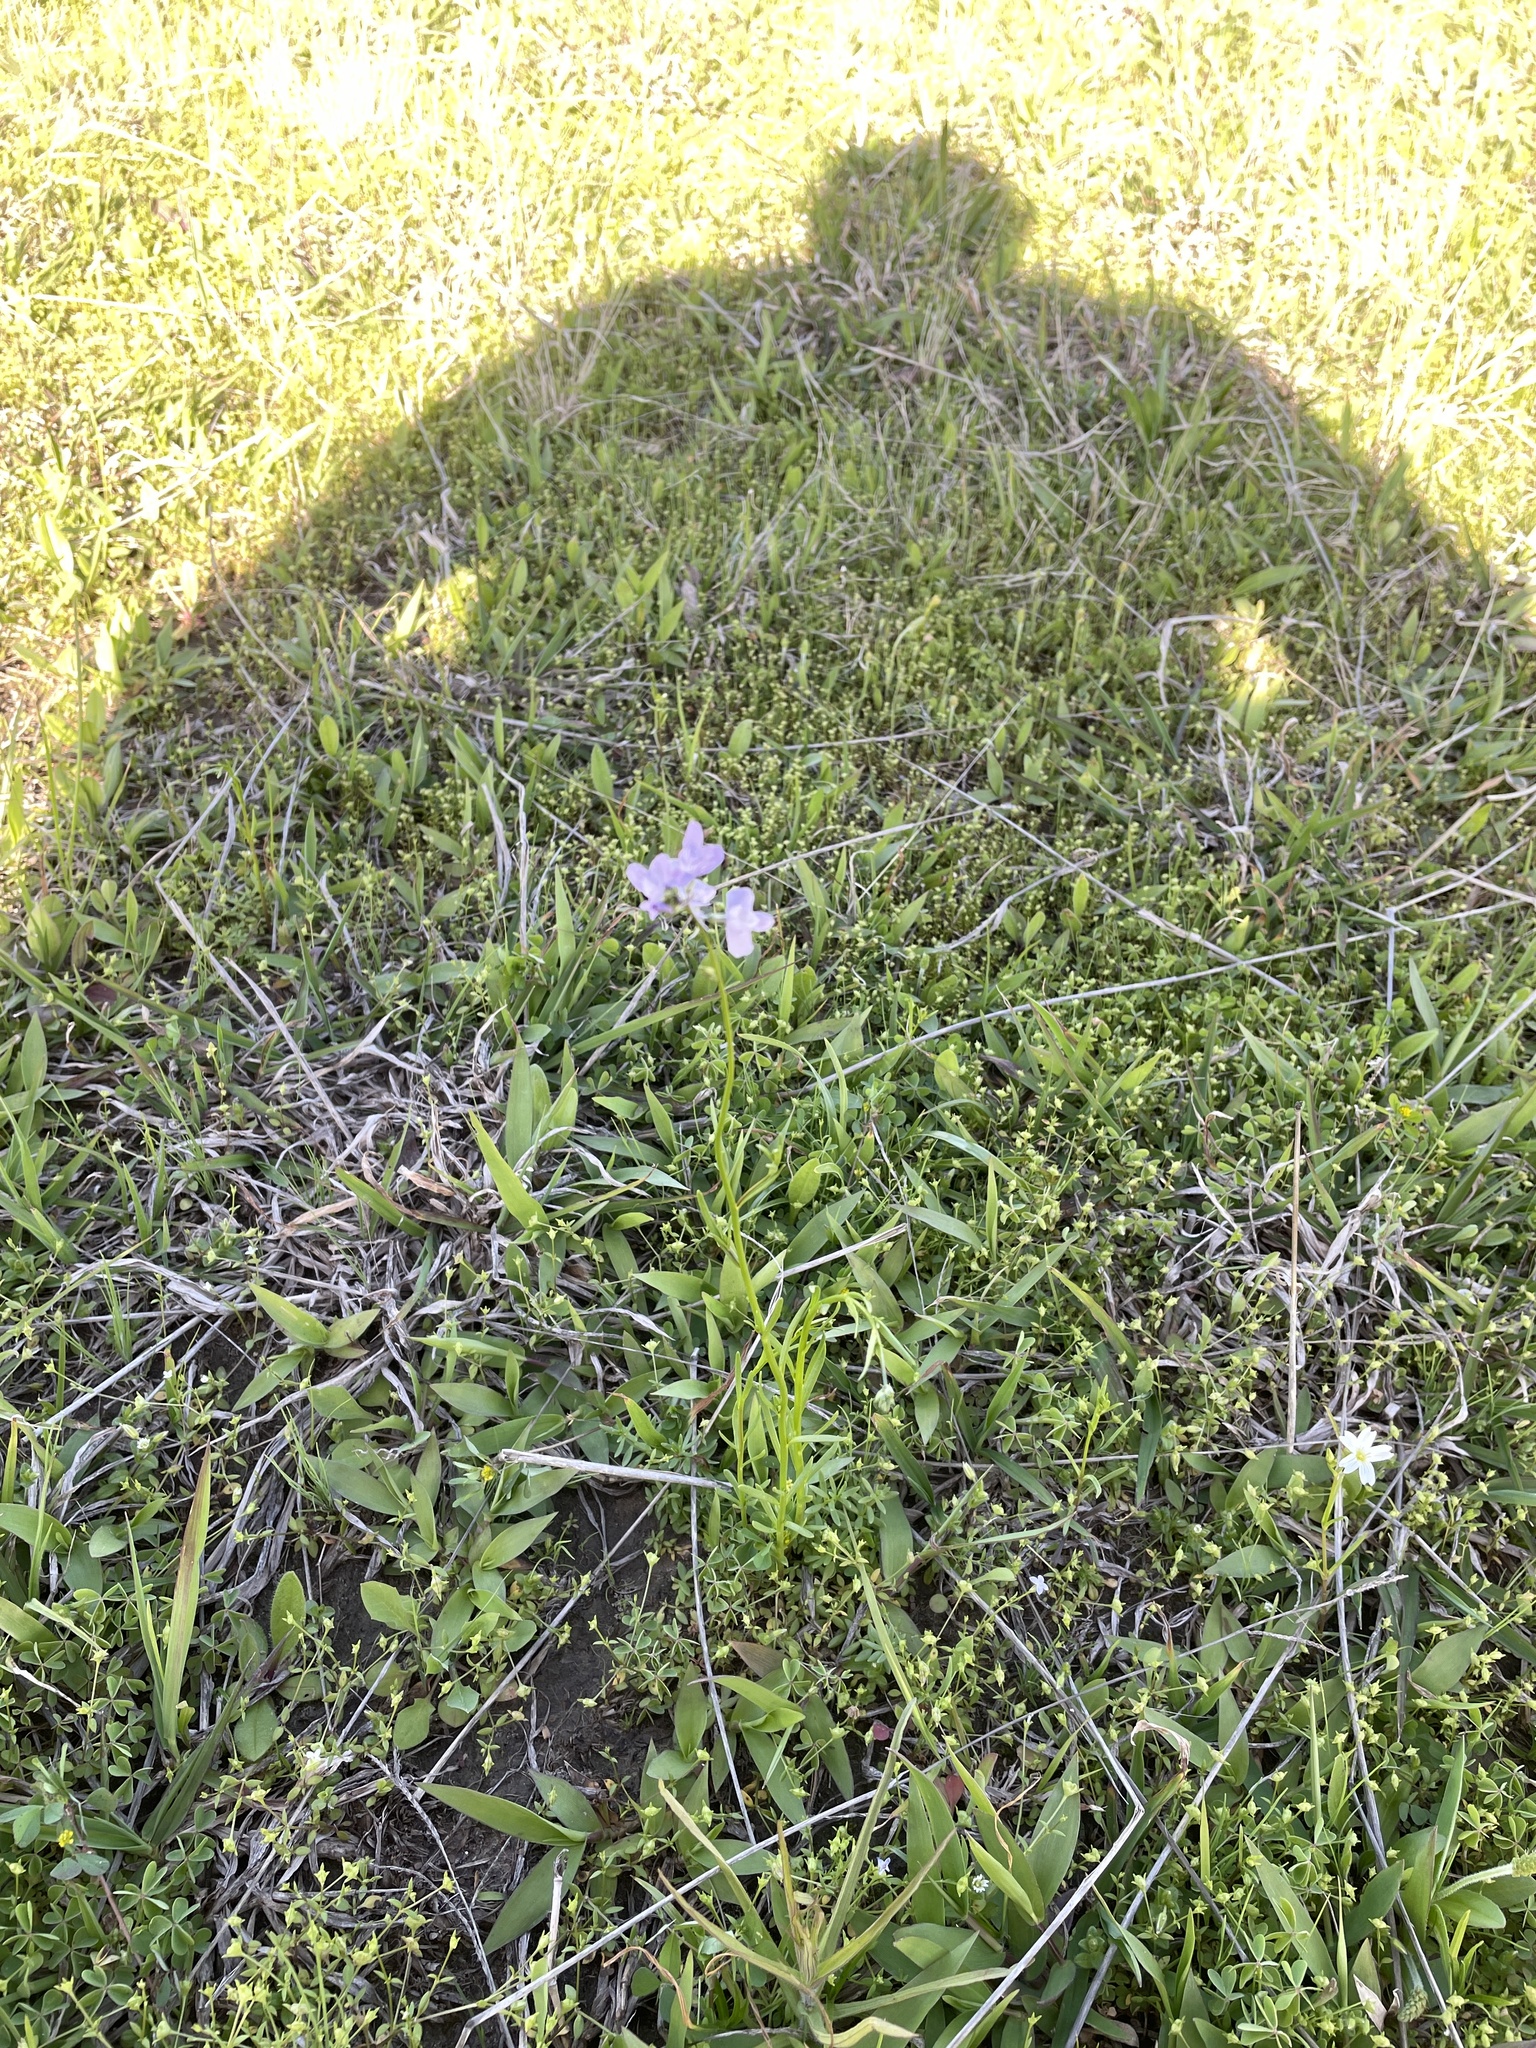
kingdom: Plantae
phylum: Tracheophyta
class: Magnoliopsida
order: Lamiales
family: Plantaginaceae
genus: Nuttallanthus
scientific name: Nuttallanthus texanus
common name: Texas toadflax
